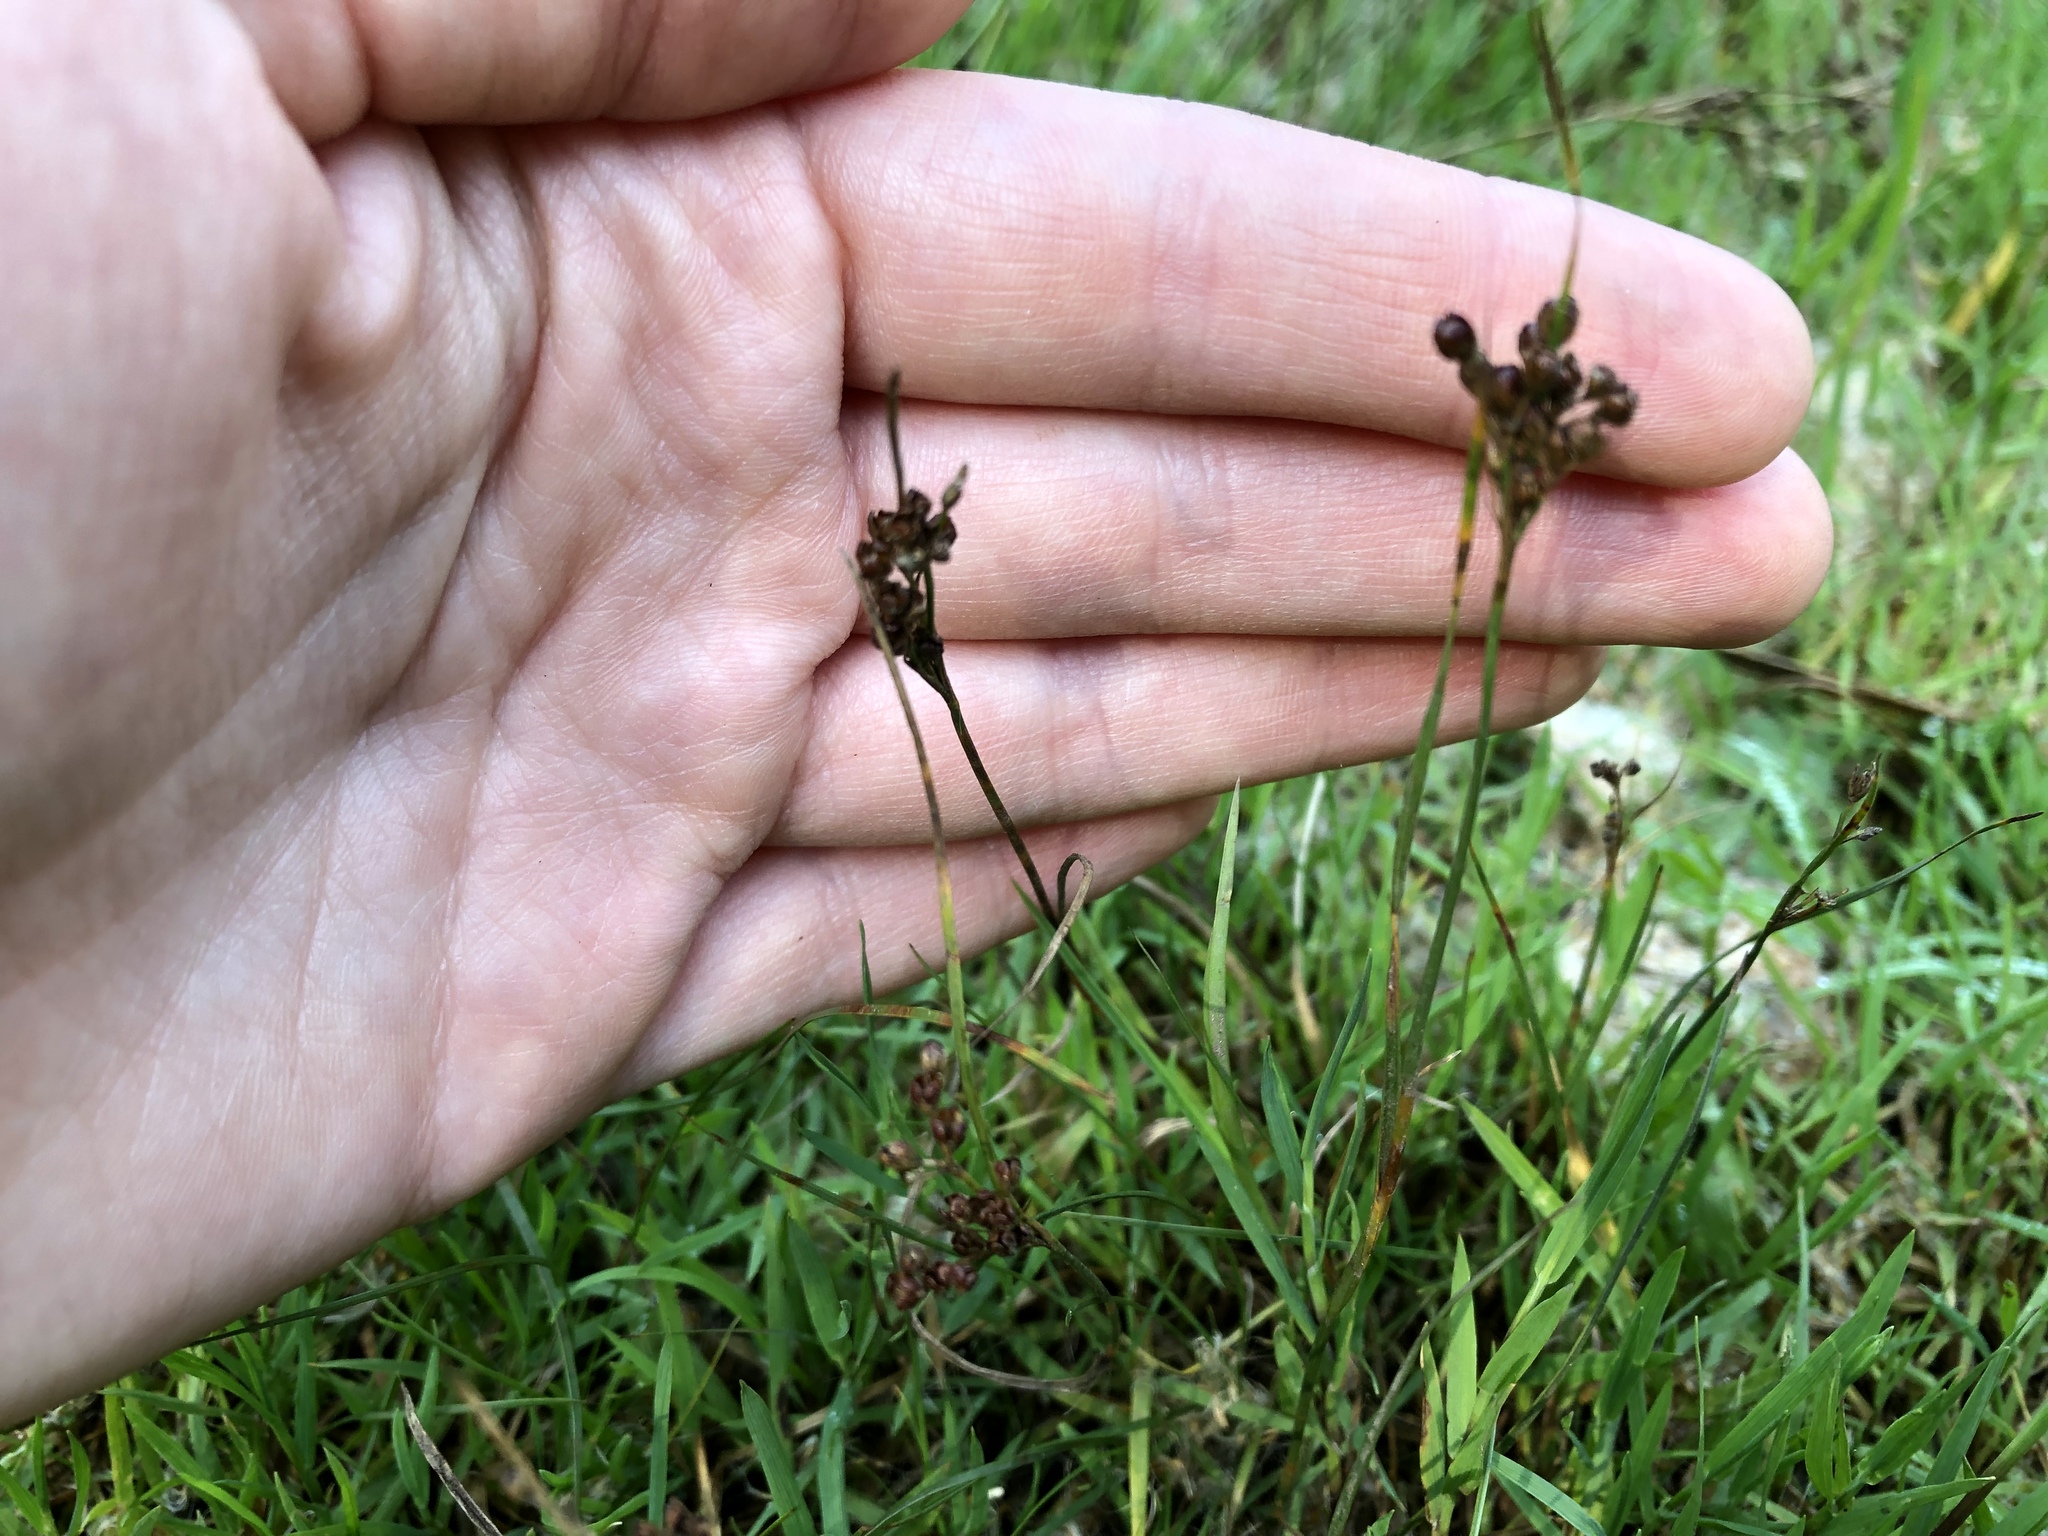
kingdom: Plantae
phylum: Tracheophyta
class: Liliopsida
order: Poales
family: Juncaceae
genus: Juncus
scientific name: Juncus compressus
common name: Round-fruited rush
